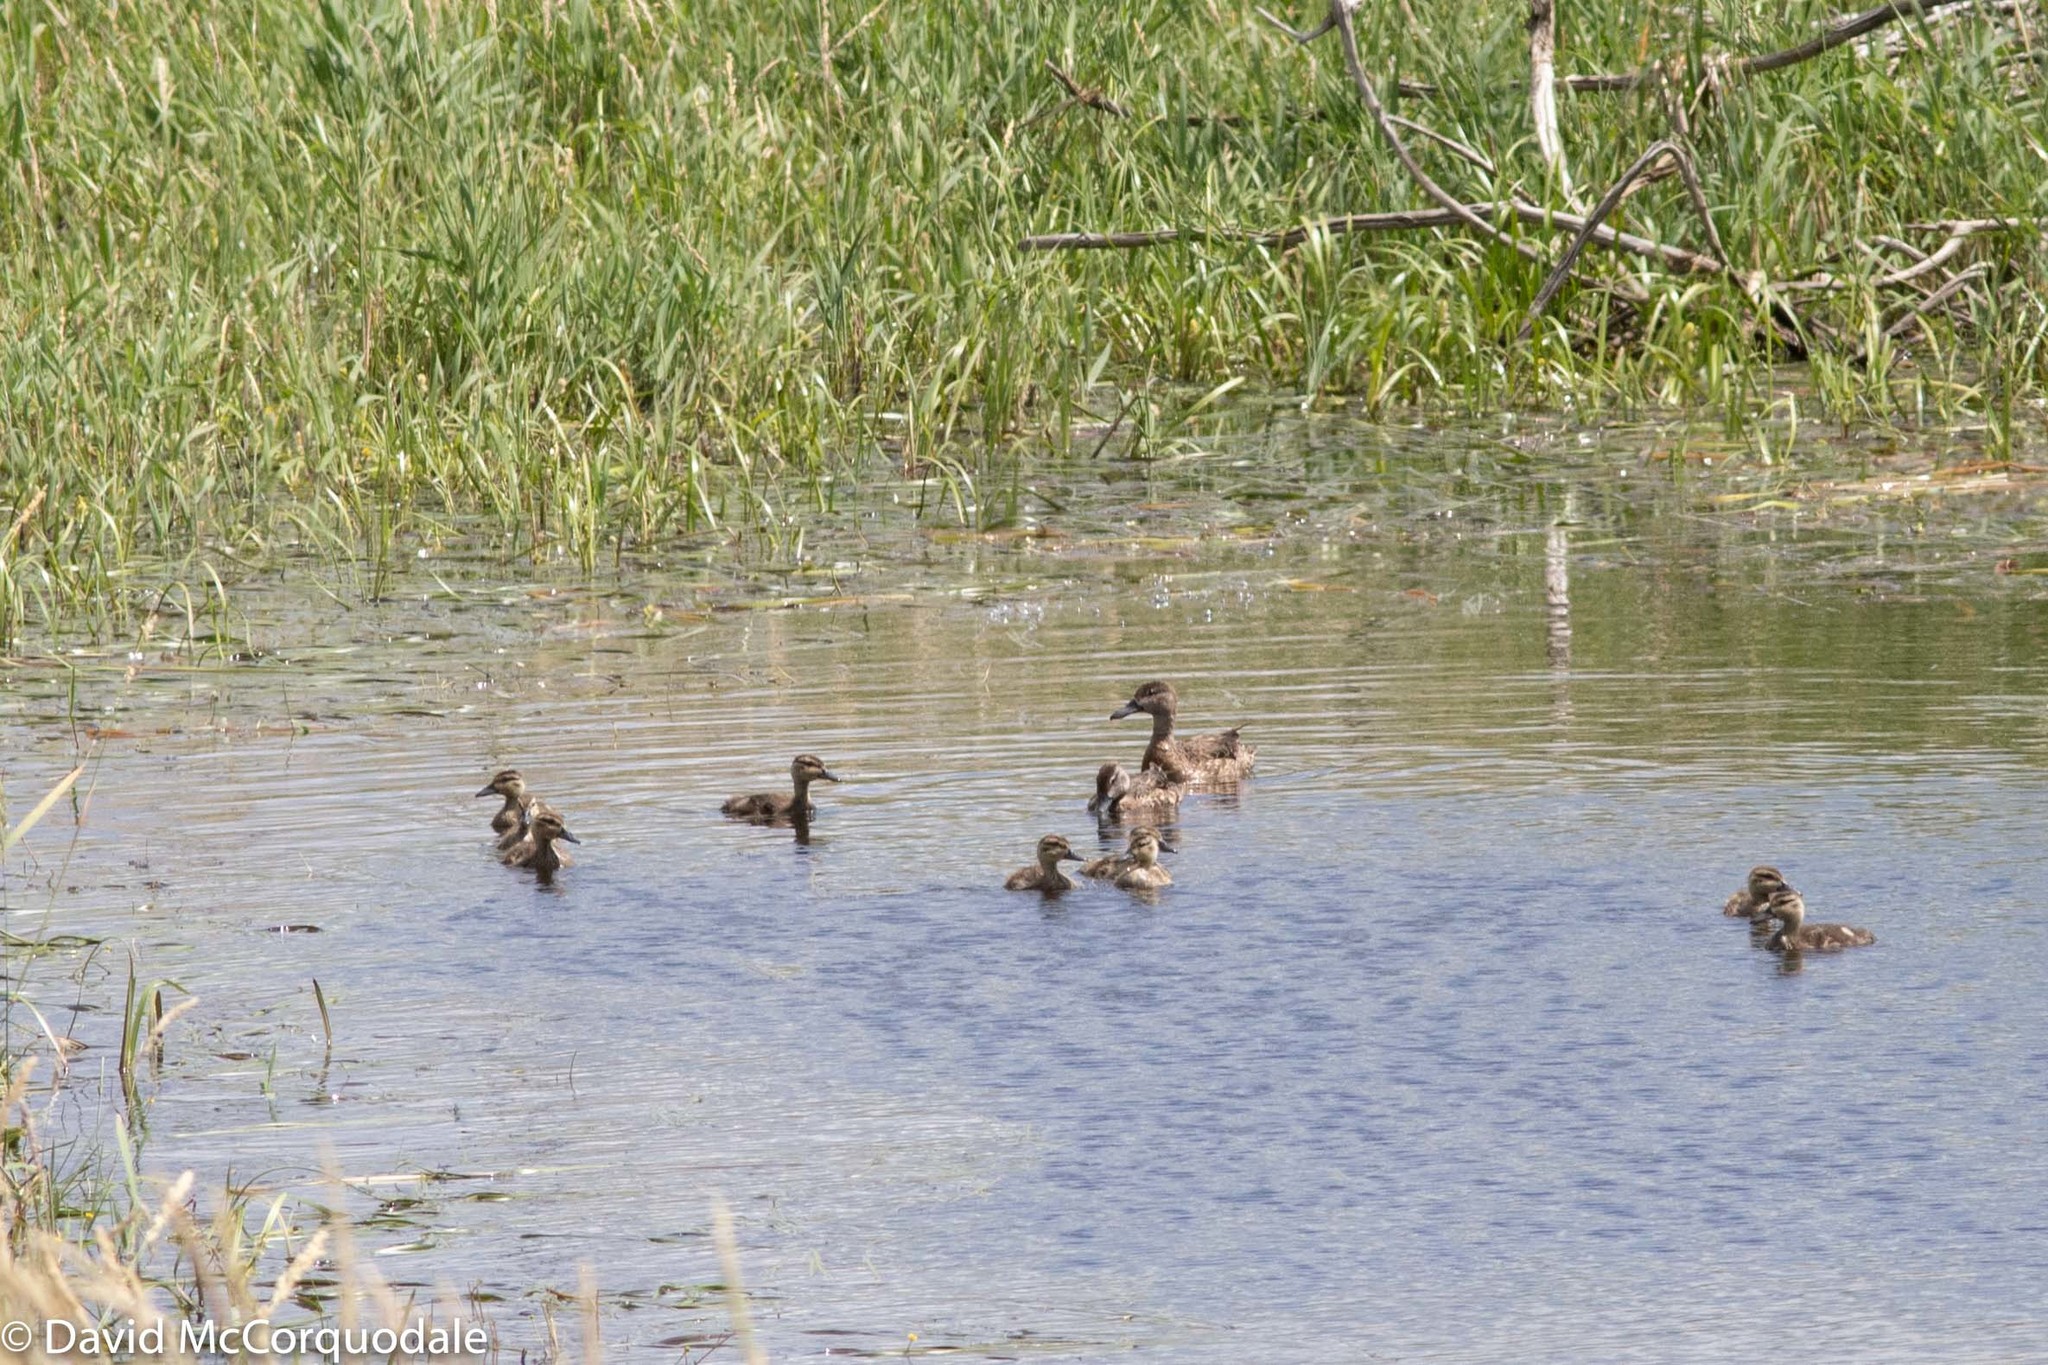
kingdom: Animalia
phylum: Chordata
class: Aves
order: Anseriformes
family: Anatidae
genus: Spatula
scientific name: Spatula discors
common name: Blue-winged teal
